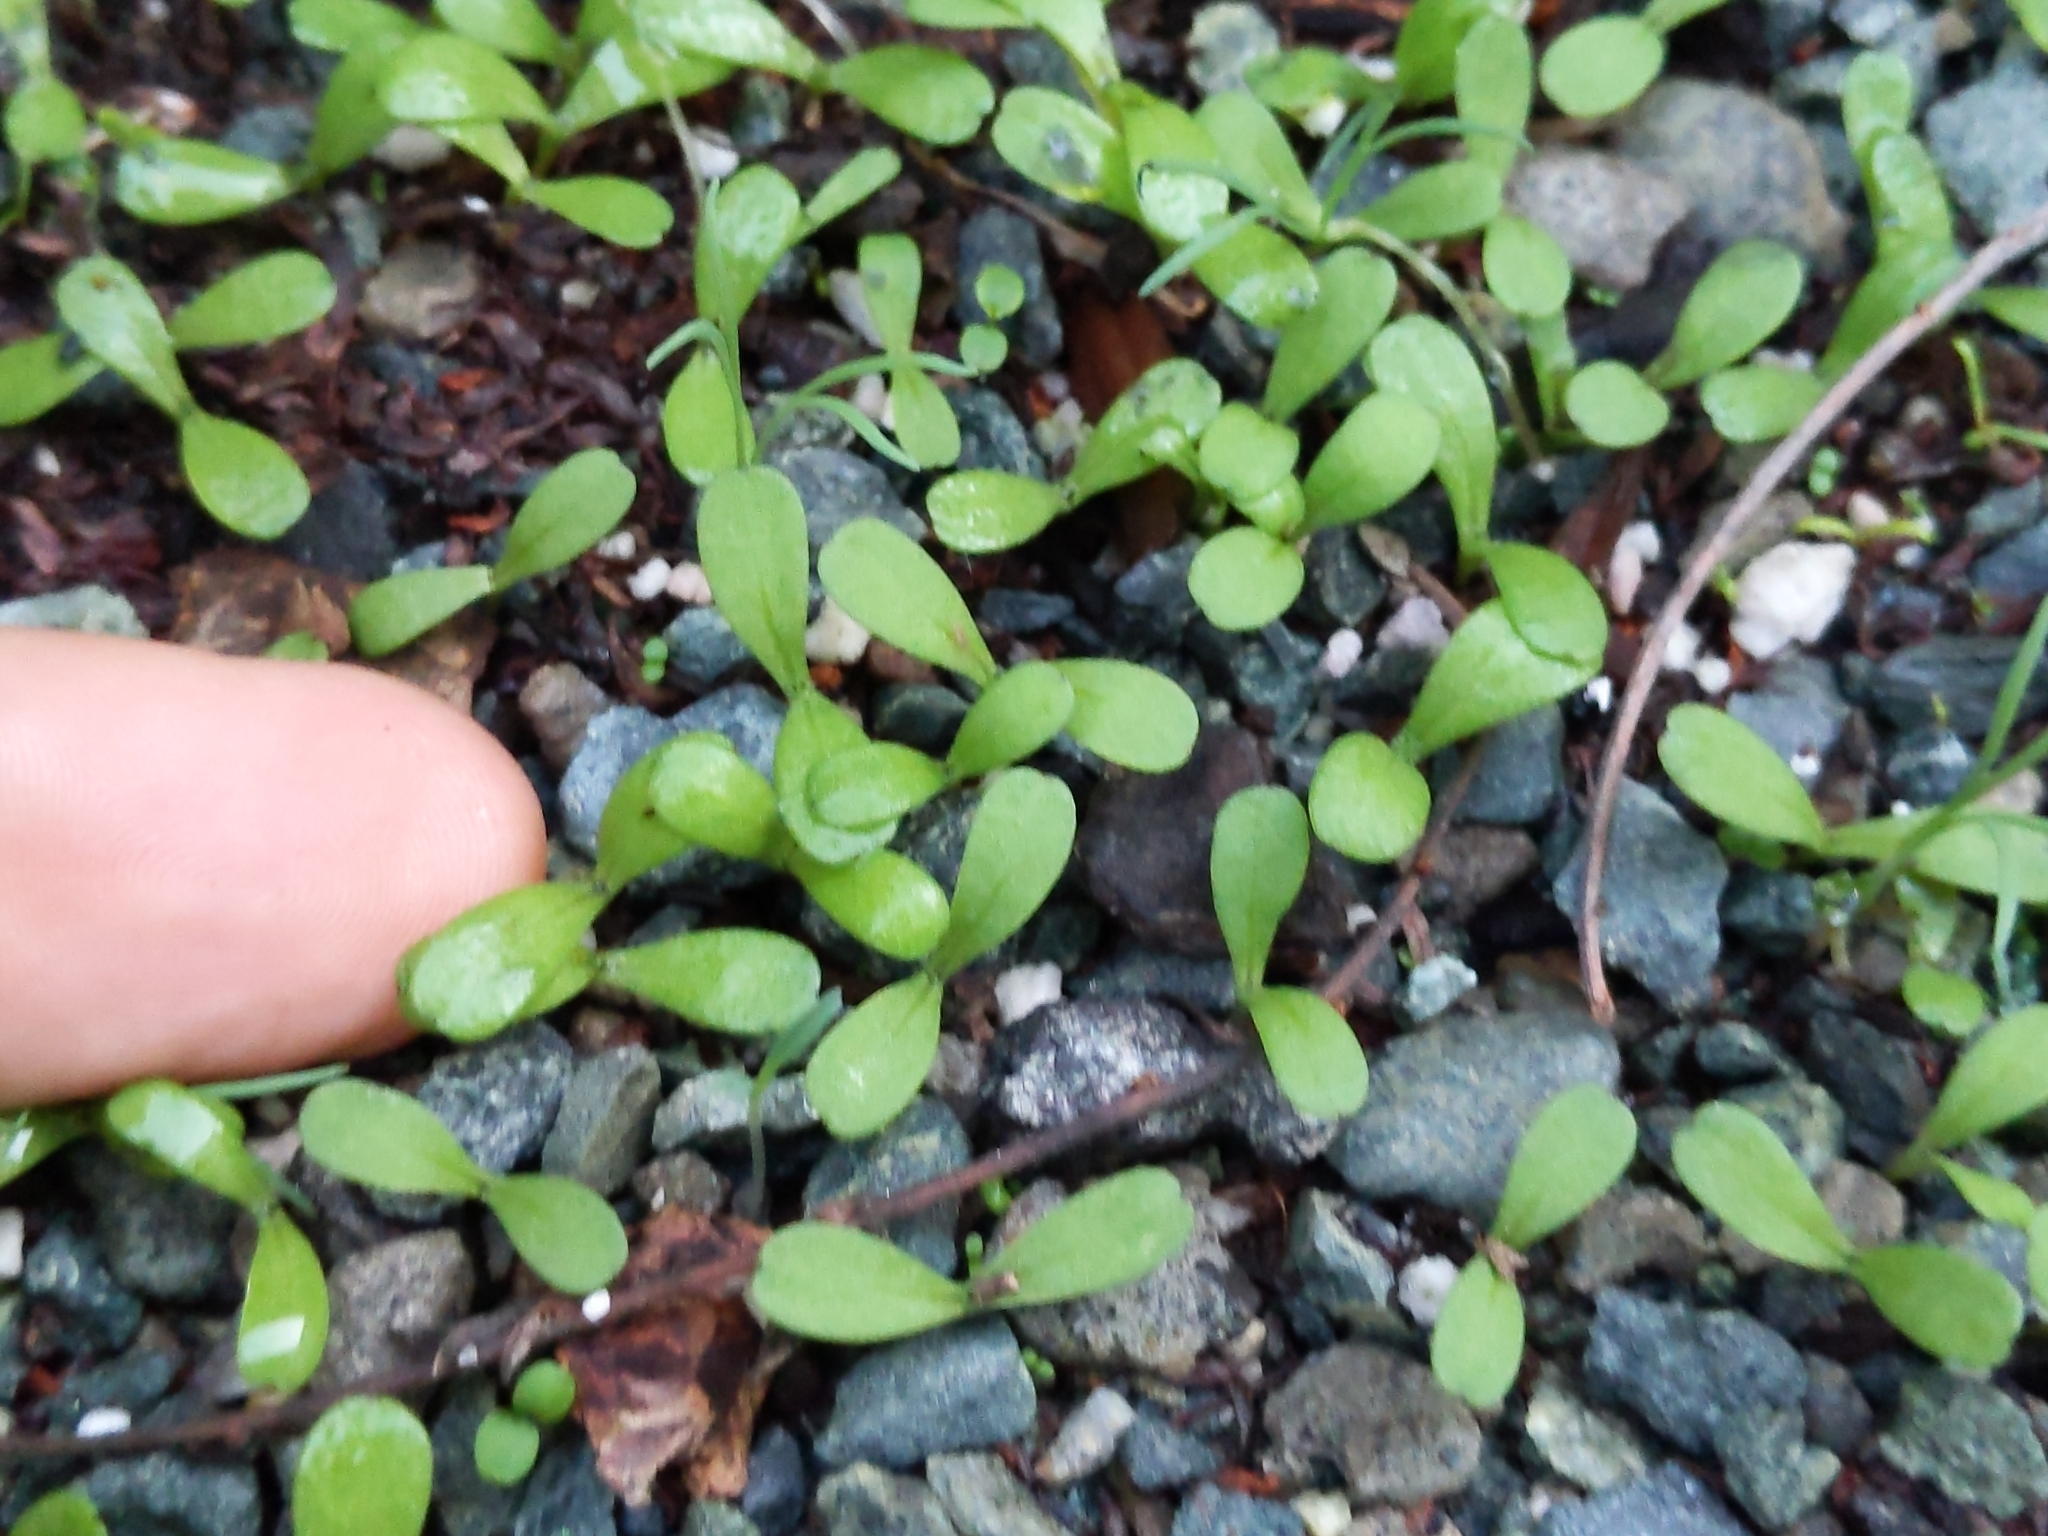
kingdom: Plantae
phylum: Tracheophyta
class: Magnoliopsida
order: Asterales
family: Asteraceae
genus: Madia
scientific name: Madia sativa
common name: Coast tarweed
